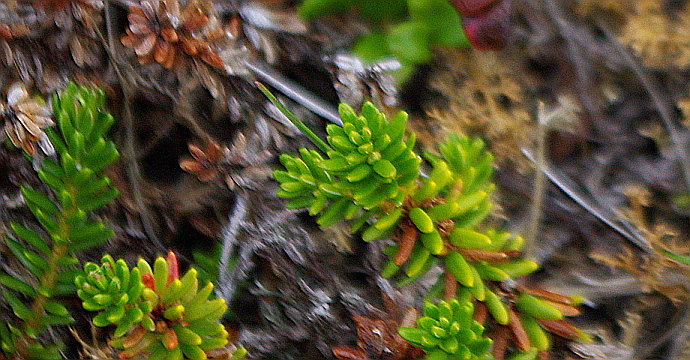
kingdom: Plantae
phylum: Tracheophyta
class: Magnoliopsida
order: Ericales
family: Ericaceae
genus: Empetrum
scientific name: Empetrum nigrum
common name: Black crowberry
